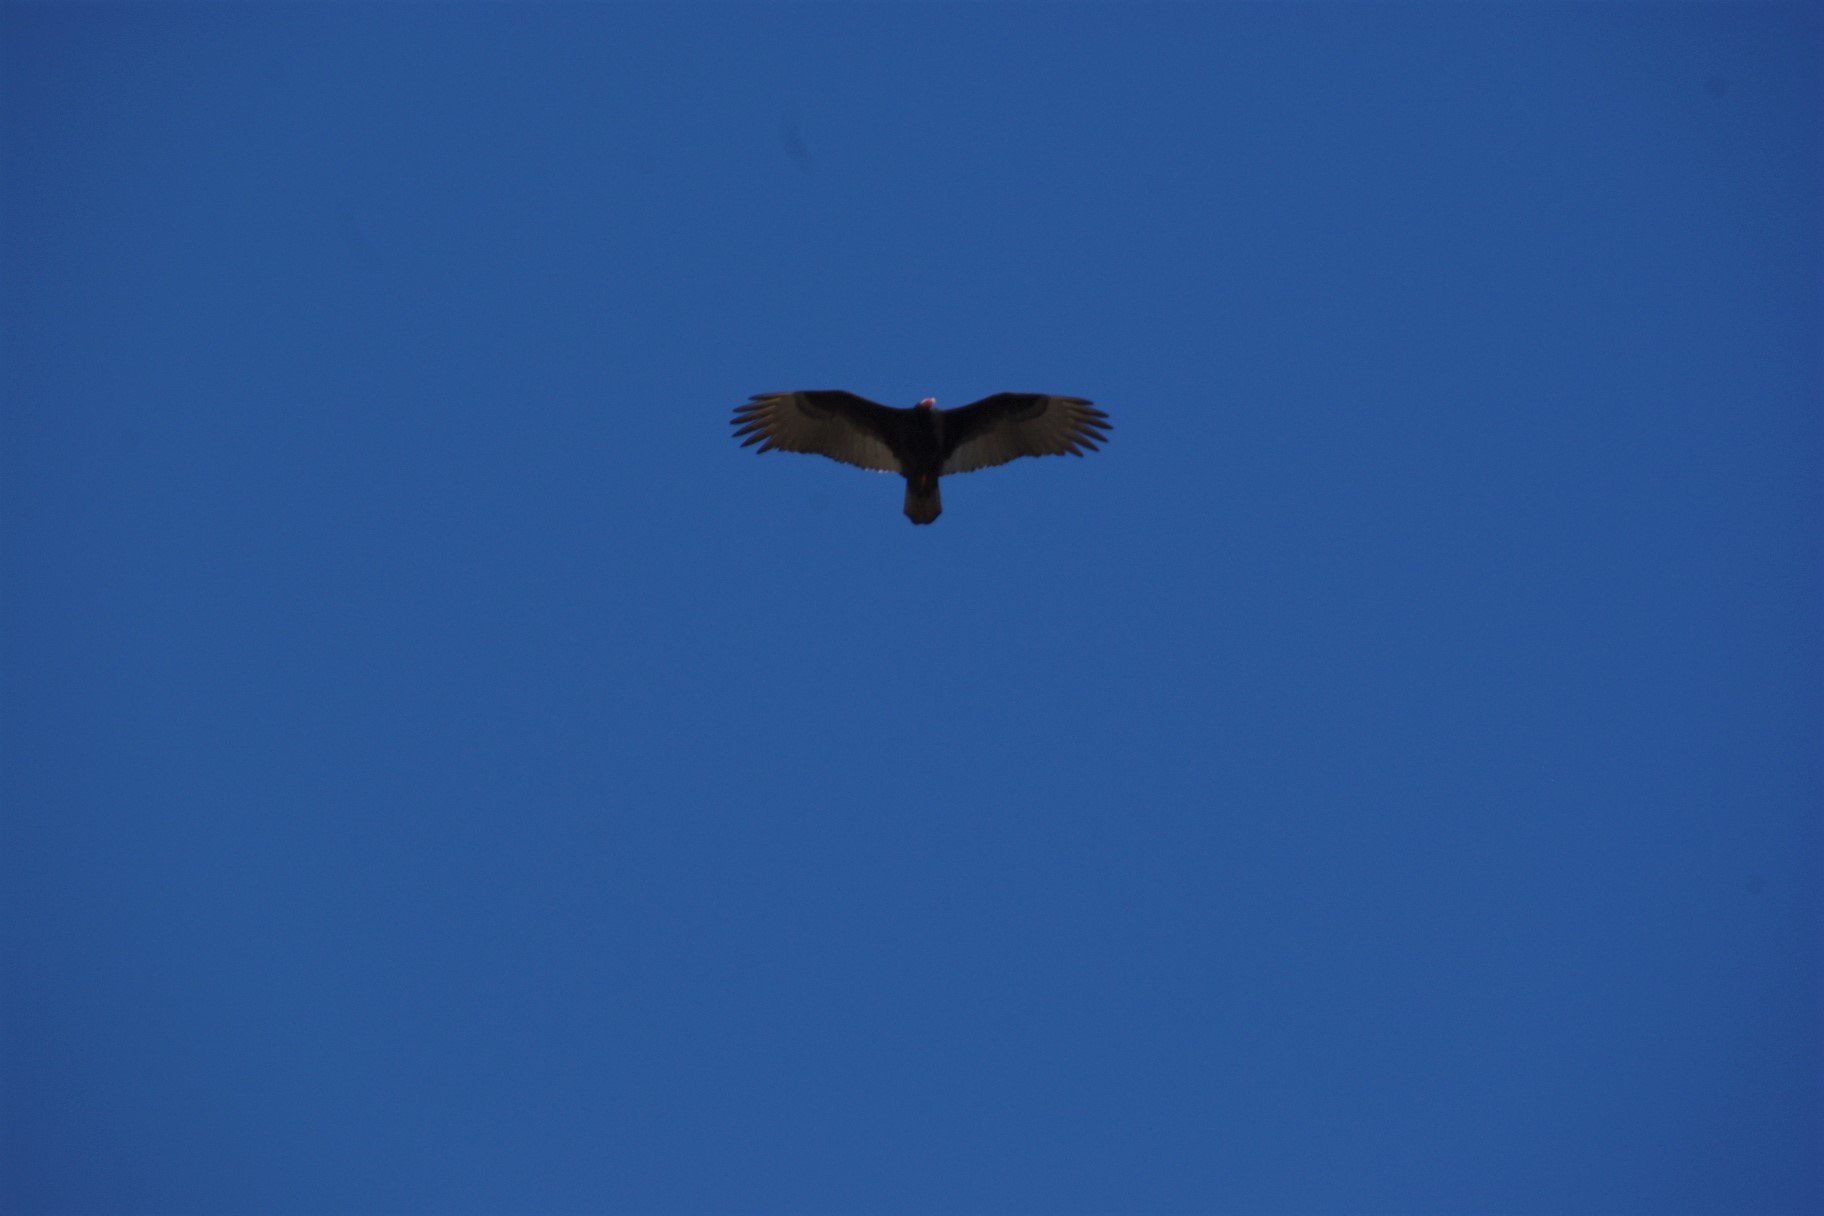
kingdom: Animalia
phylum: Chordata
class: Aves
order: Accipitriformes
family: Cathartidae
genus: Cathartes
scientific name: Cathartes aura
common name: Turkey vulture
